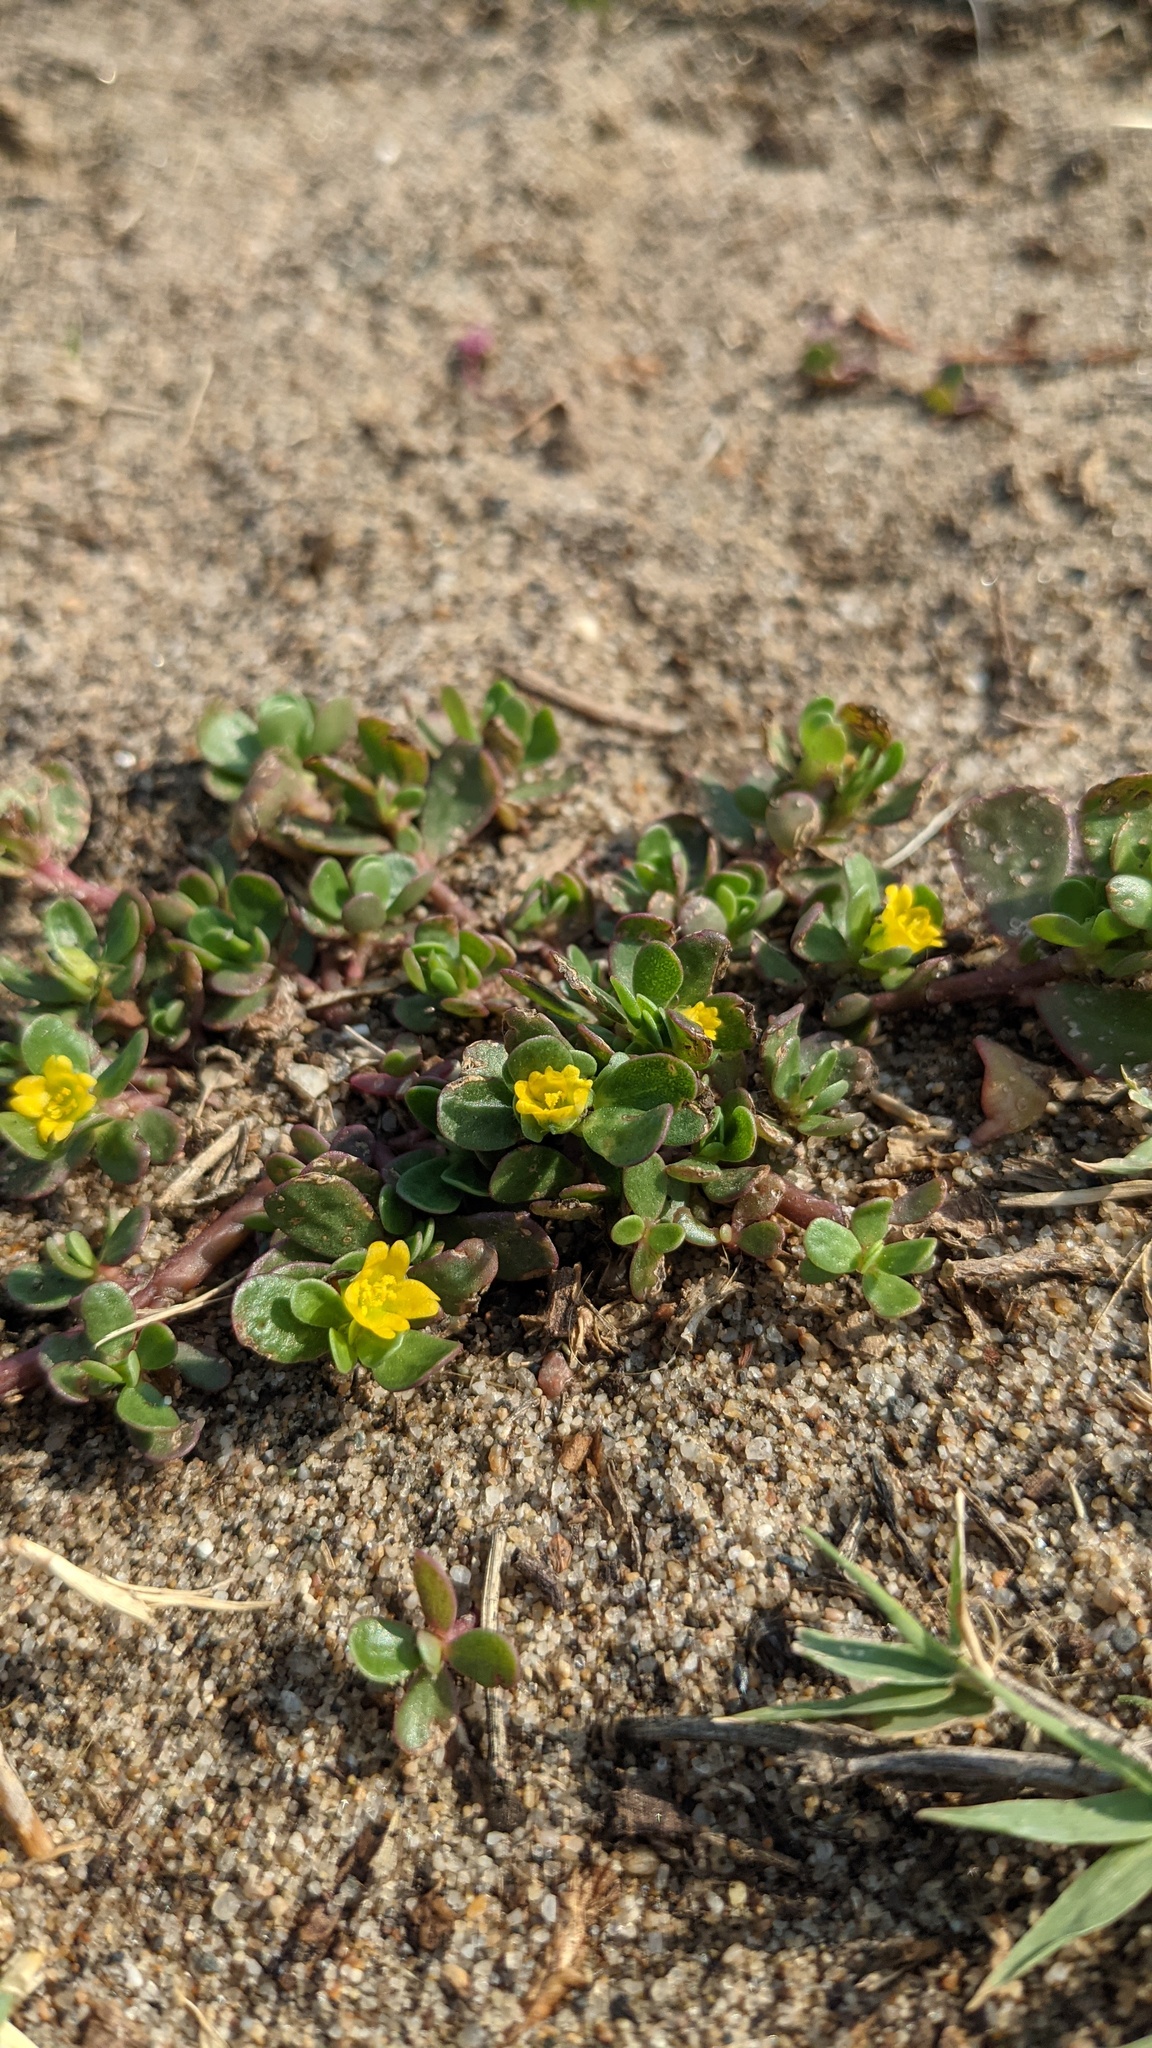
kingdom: Plantae
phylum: Tracheophyta
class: Magnoliopsida
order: Caryophyllales
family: Portulacaceae
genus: Portulaca
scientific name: Portulaca oleracea
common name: Common purslane
